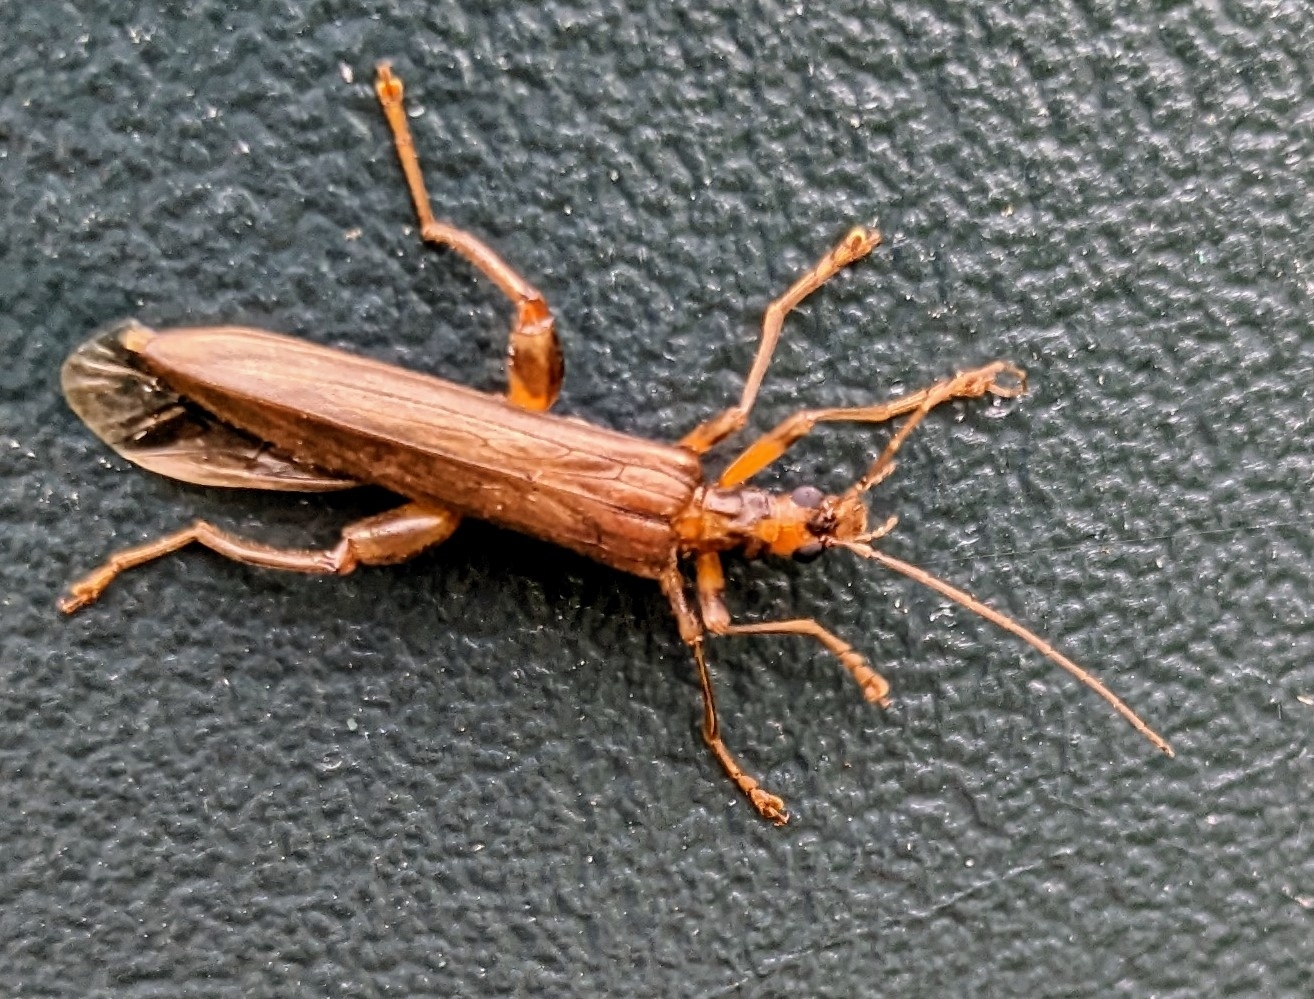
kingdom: Animalia
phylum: Arthropoda
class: Insecta
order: Coleoptera
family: Oedemeridae
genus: Oedemera
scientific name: Oedemera femoralis
